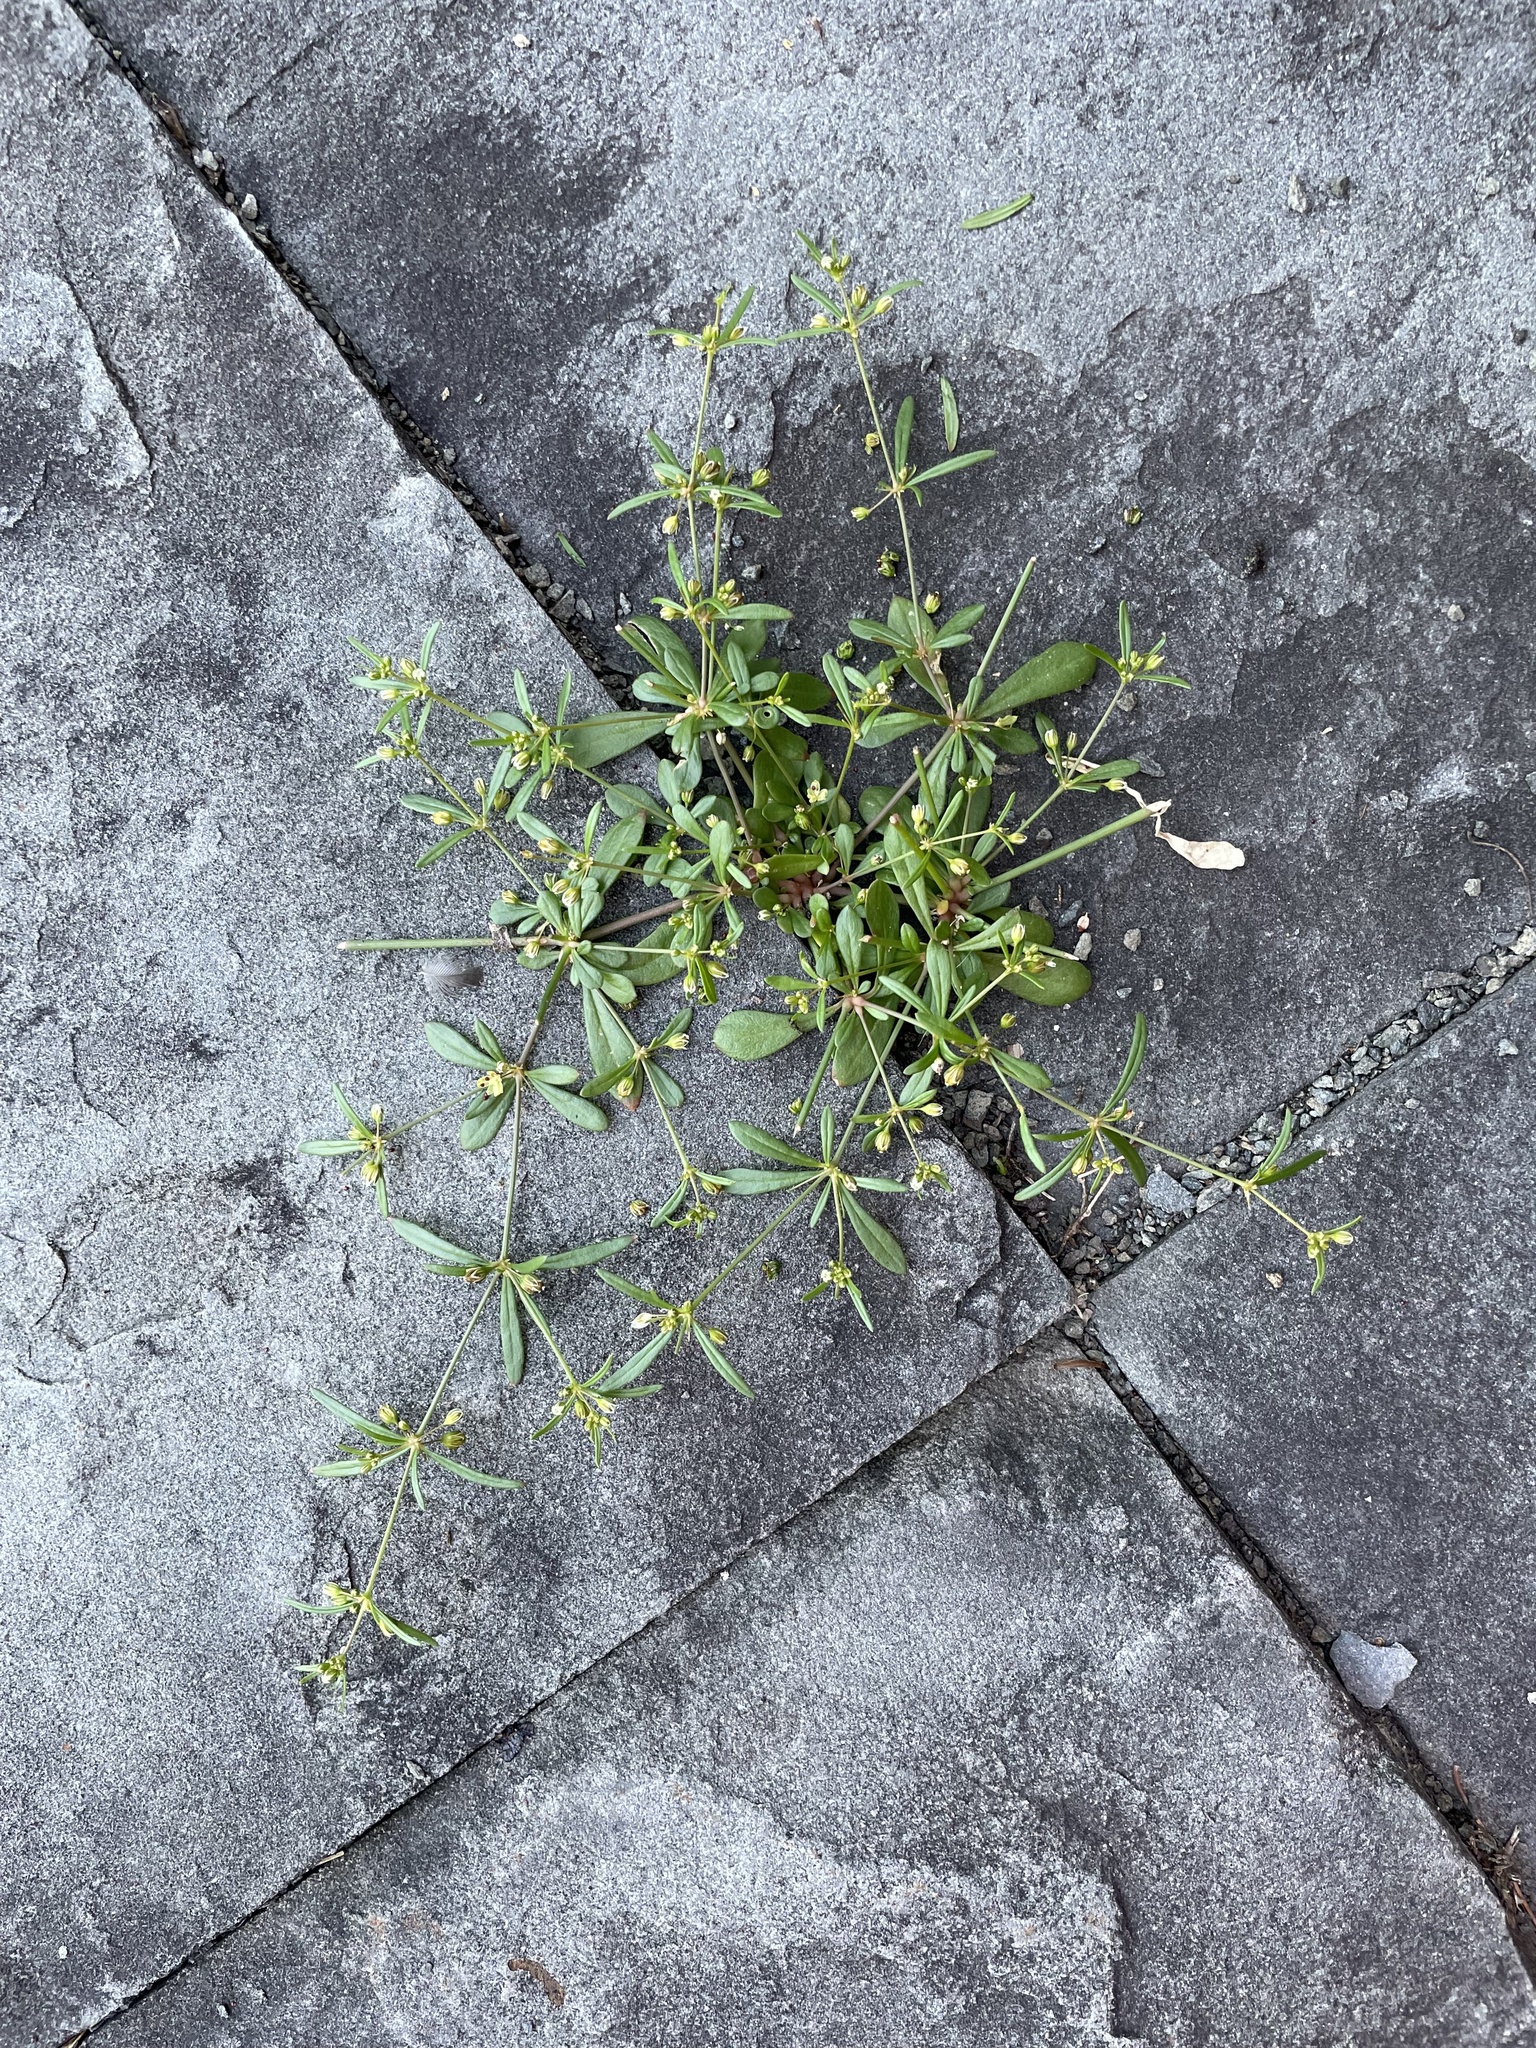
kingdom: Plantae
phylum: Tracheophyta
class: Magnoliopsida
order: Caryophyllales
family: Molluginaceae
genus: Mollugo
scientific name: Mollugo verticillata
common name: Green carpetweed
